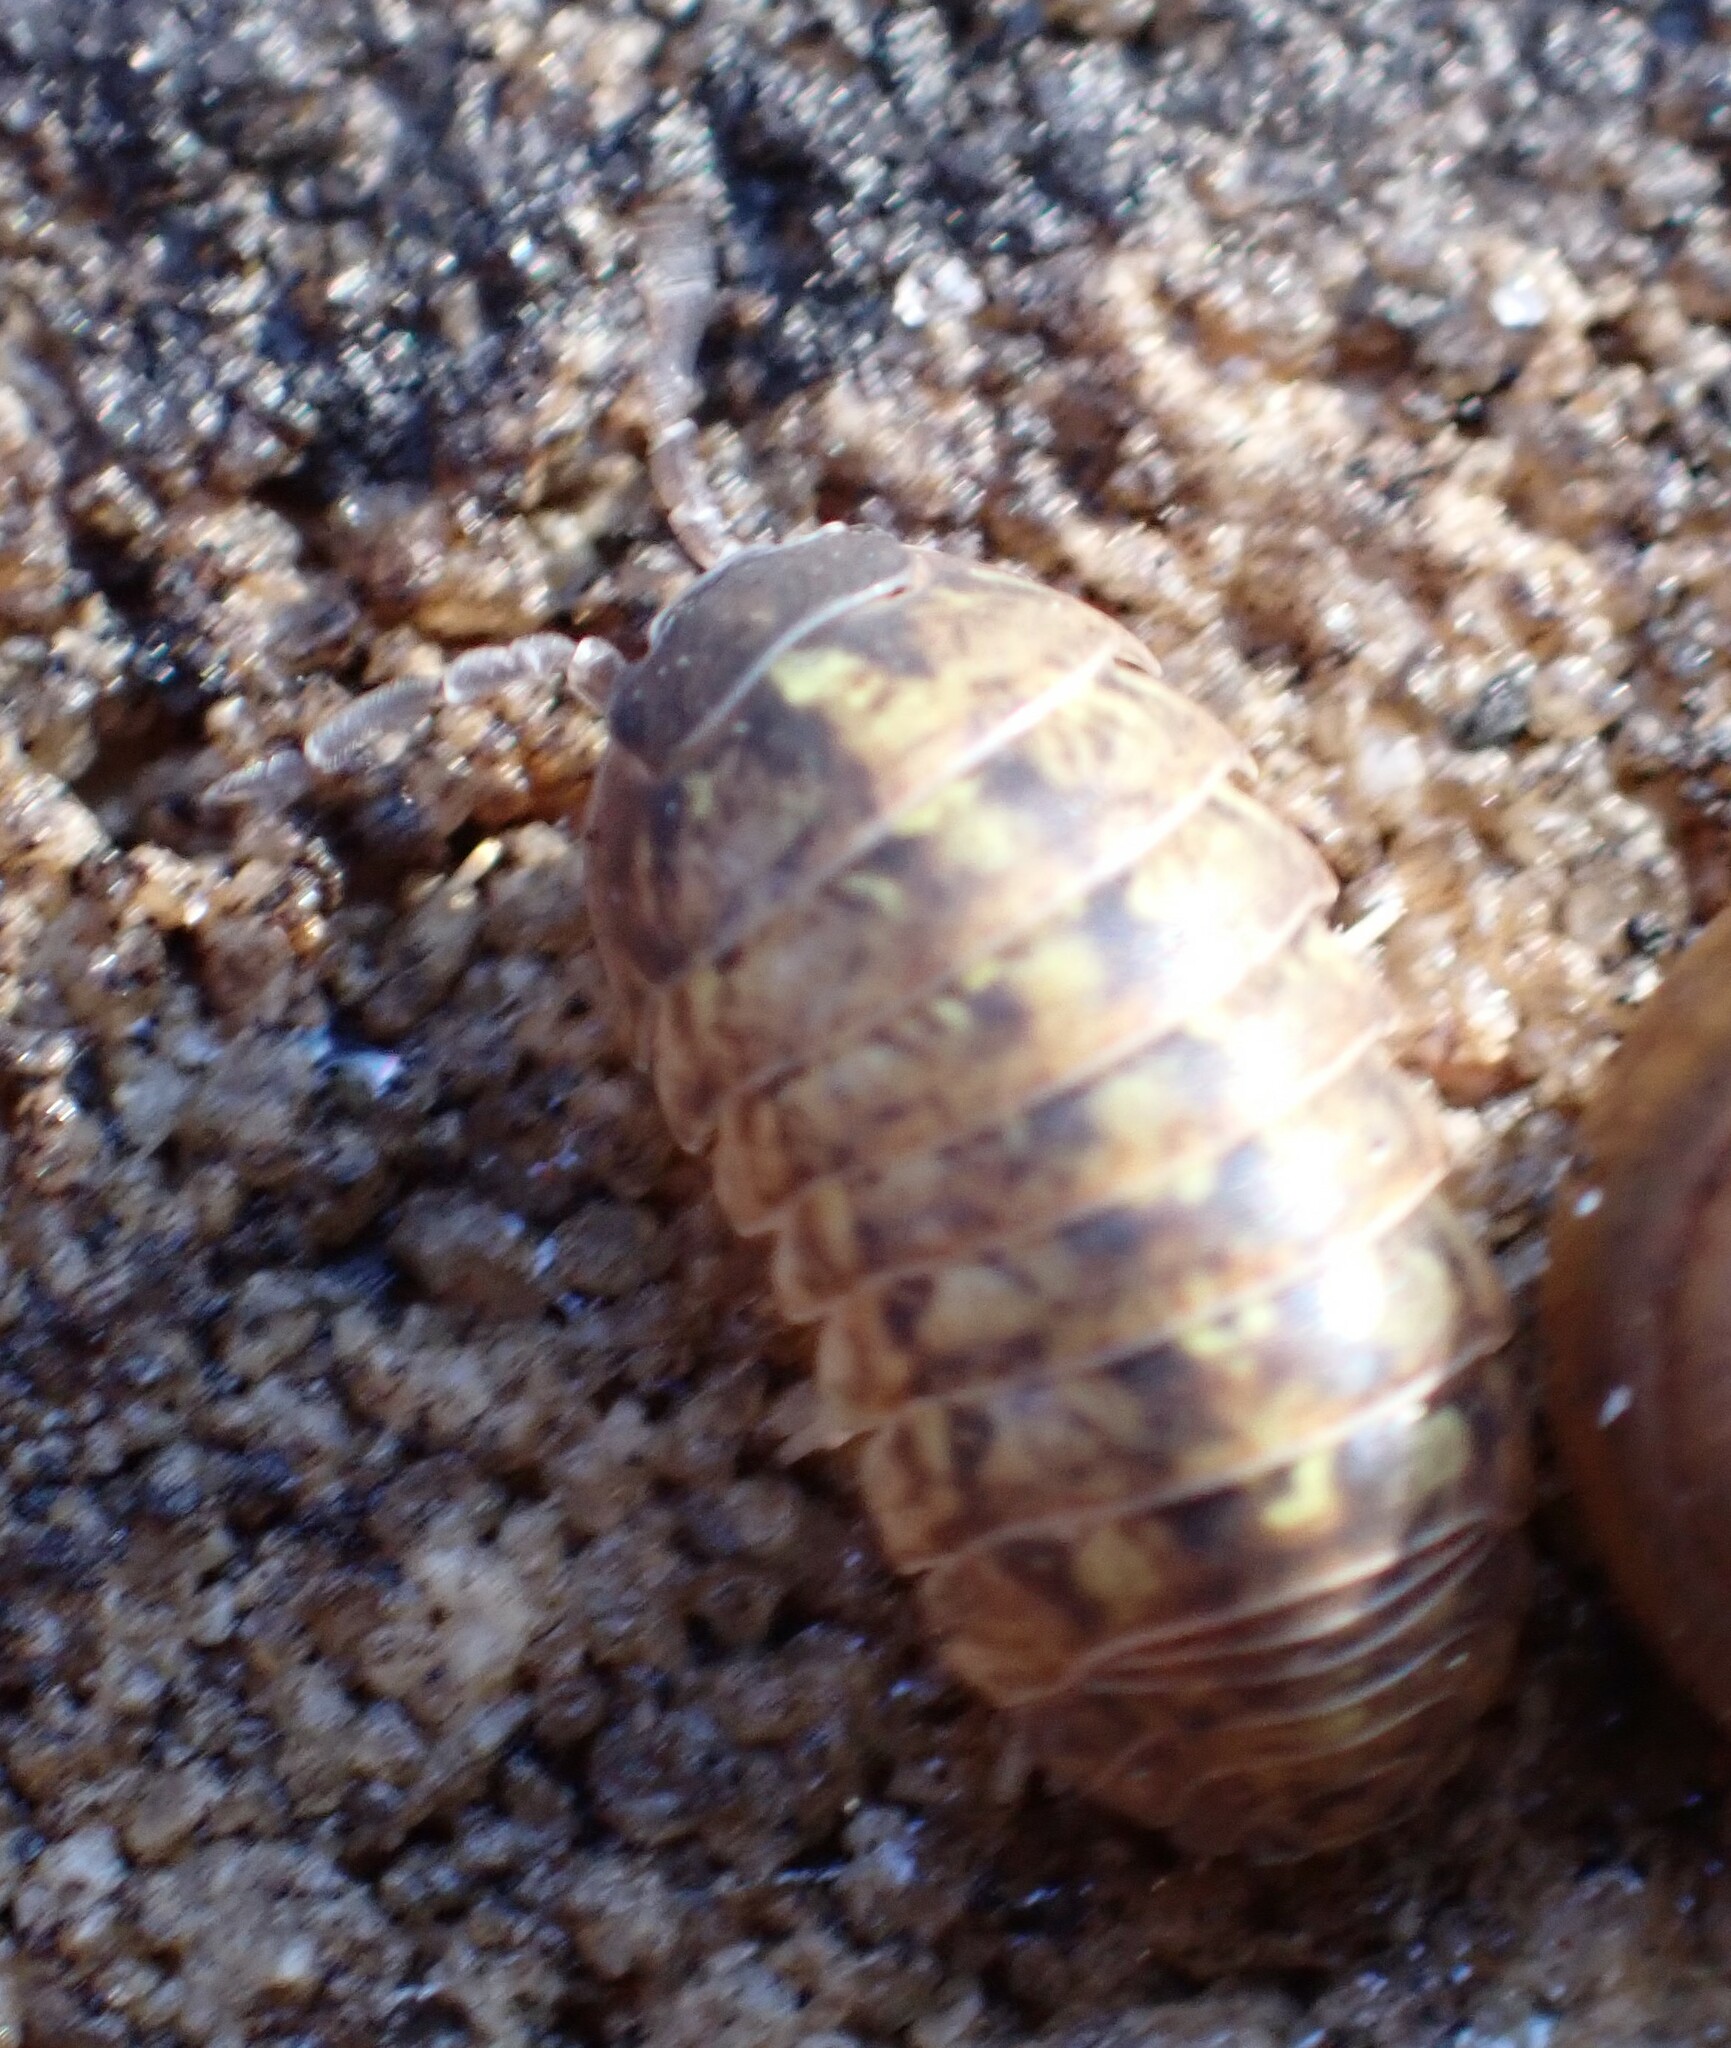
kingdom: Animalia
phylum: Arthropoda
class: Malacostraca
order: Isopoda
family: Armadillidiidae
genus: Armadillidium
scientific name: Armadillidium vulgare
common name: Common pill woodlouse
